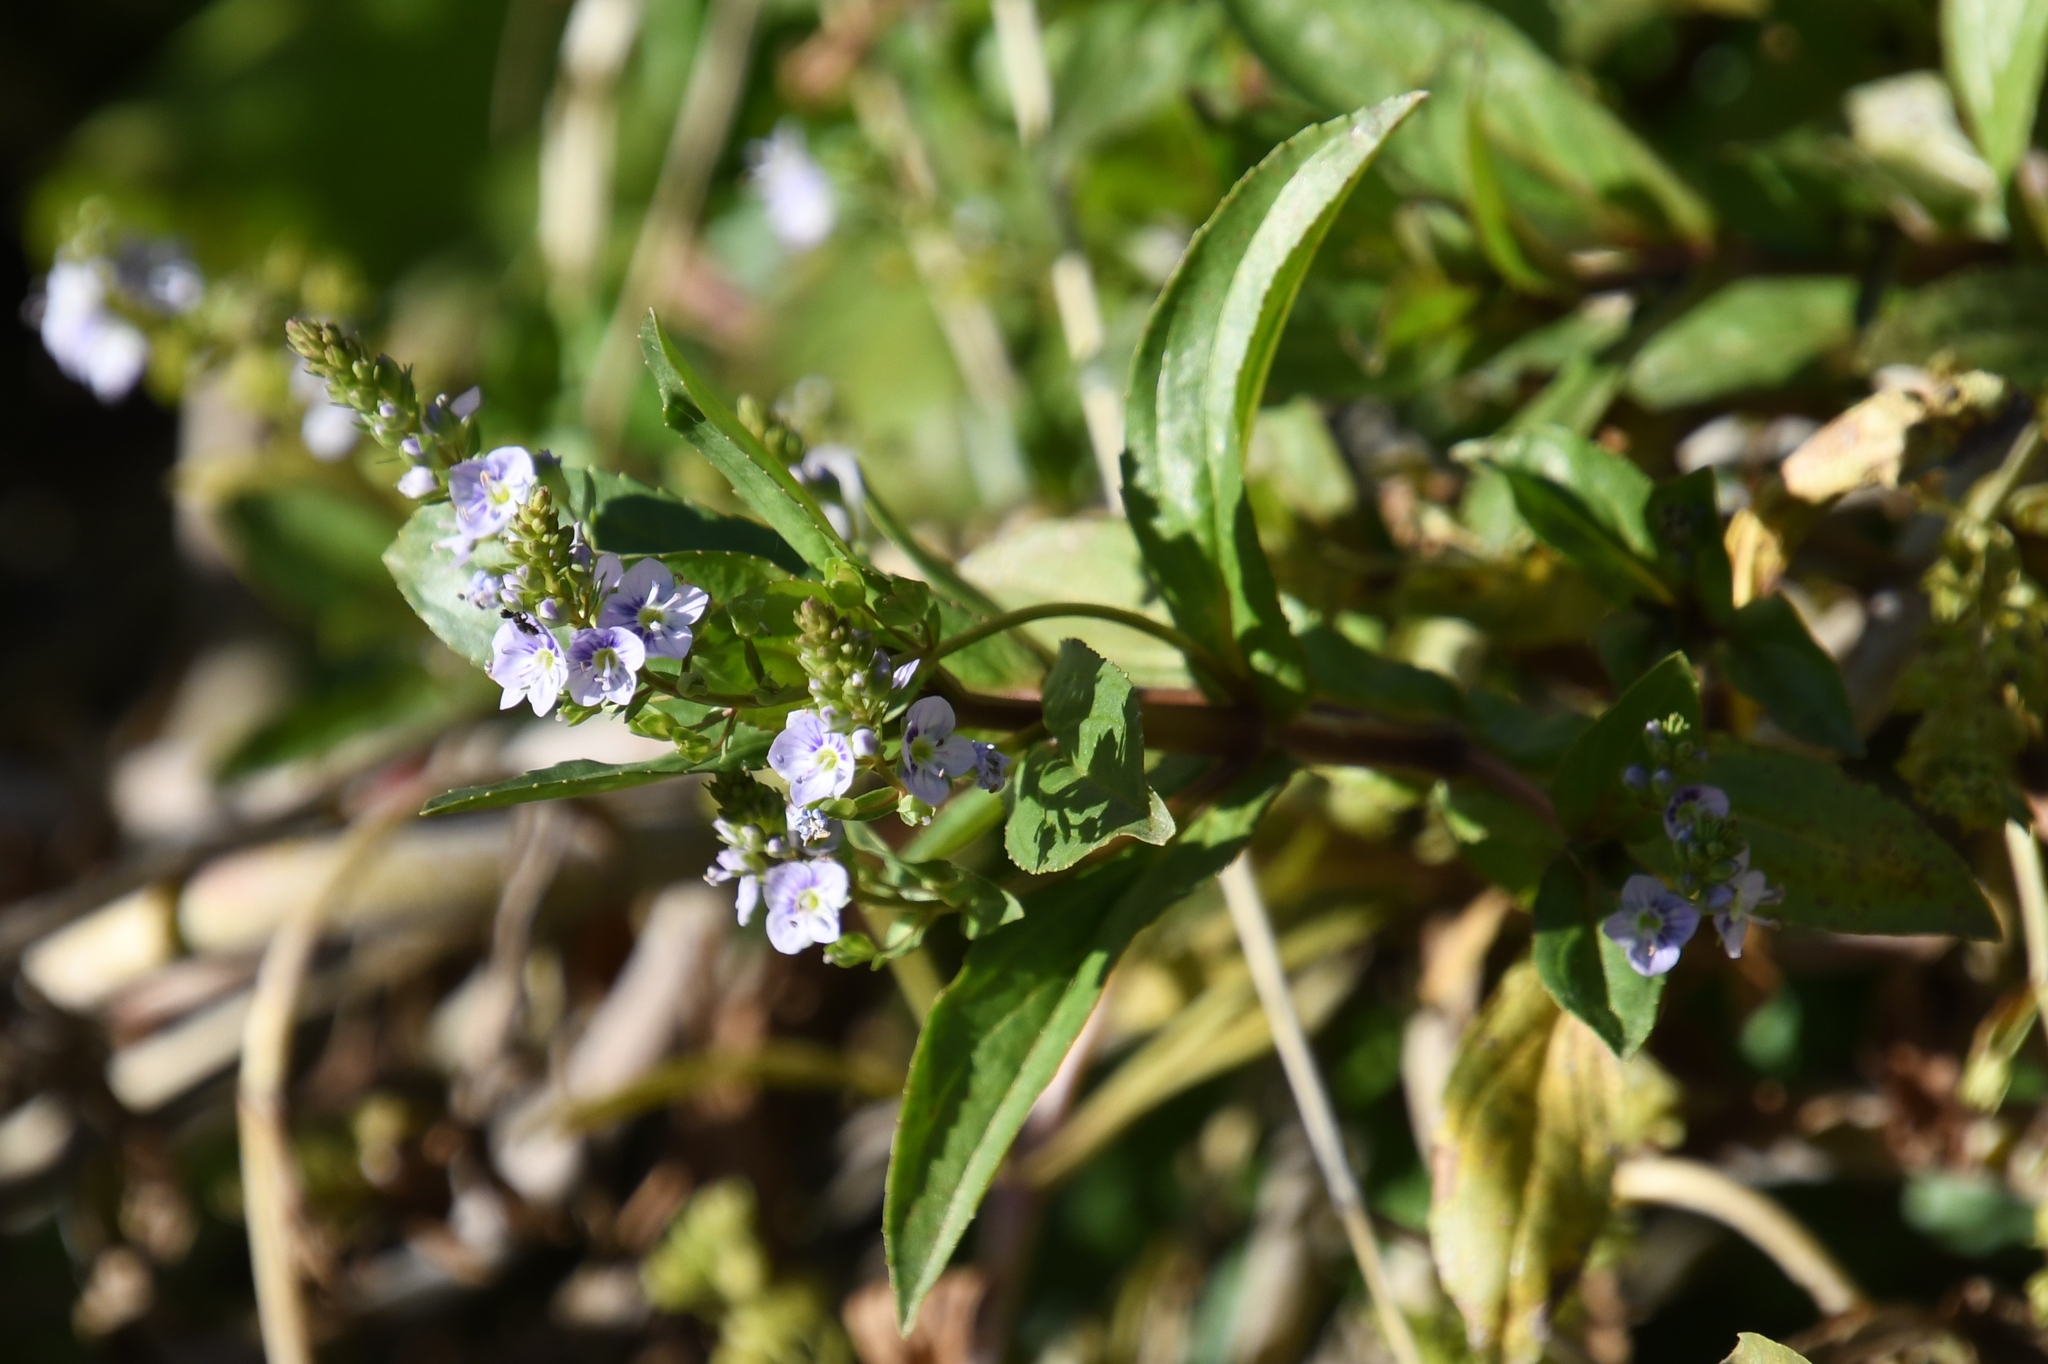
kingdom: Plantae
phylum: Tracheophyta
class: Magnoliopsida
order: Lamiales
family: Plantaginaceae
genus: Veronica
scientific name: Veronica anagallis-aquatica
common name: Water speedwell
